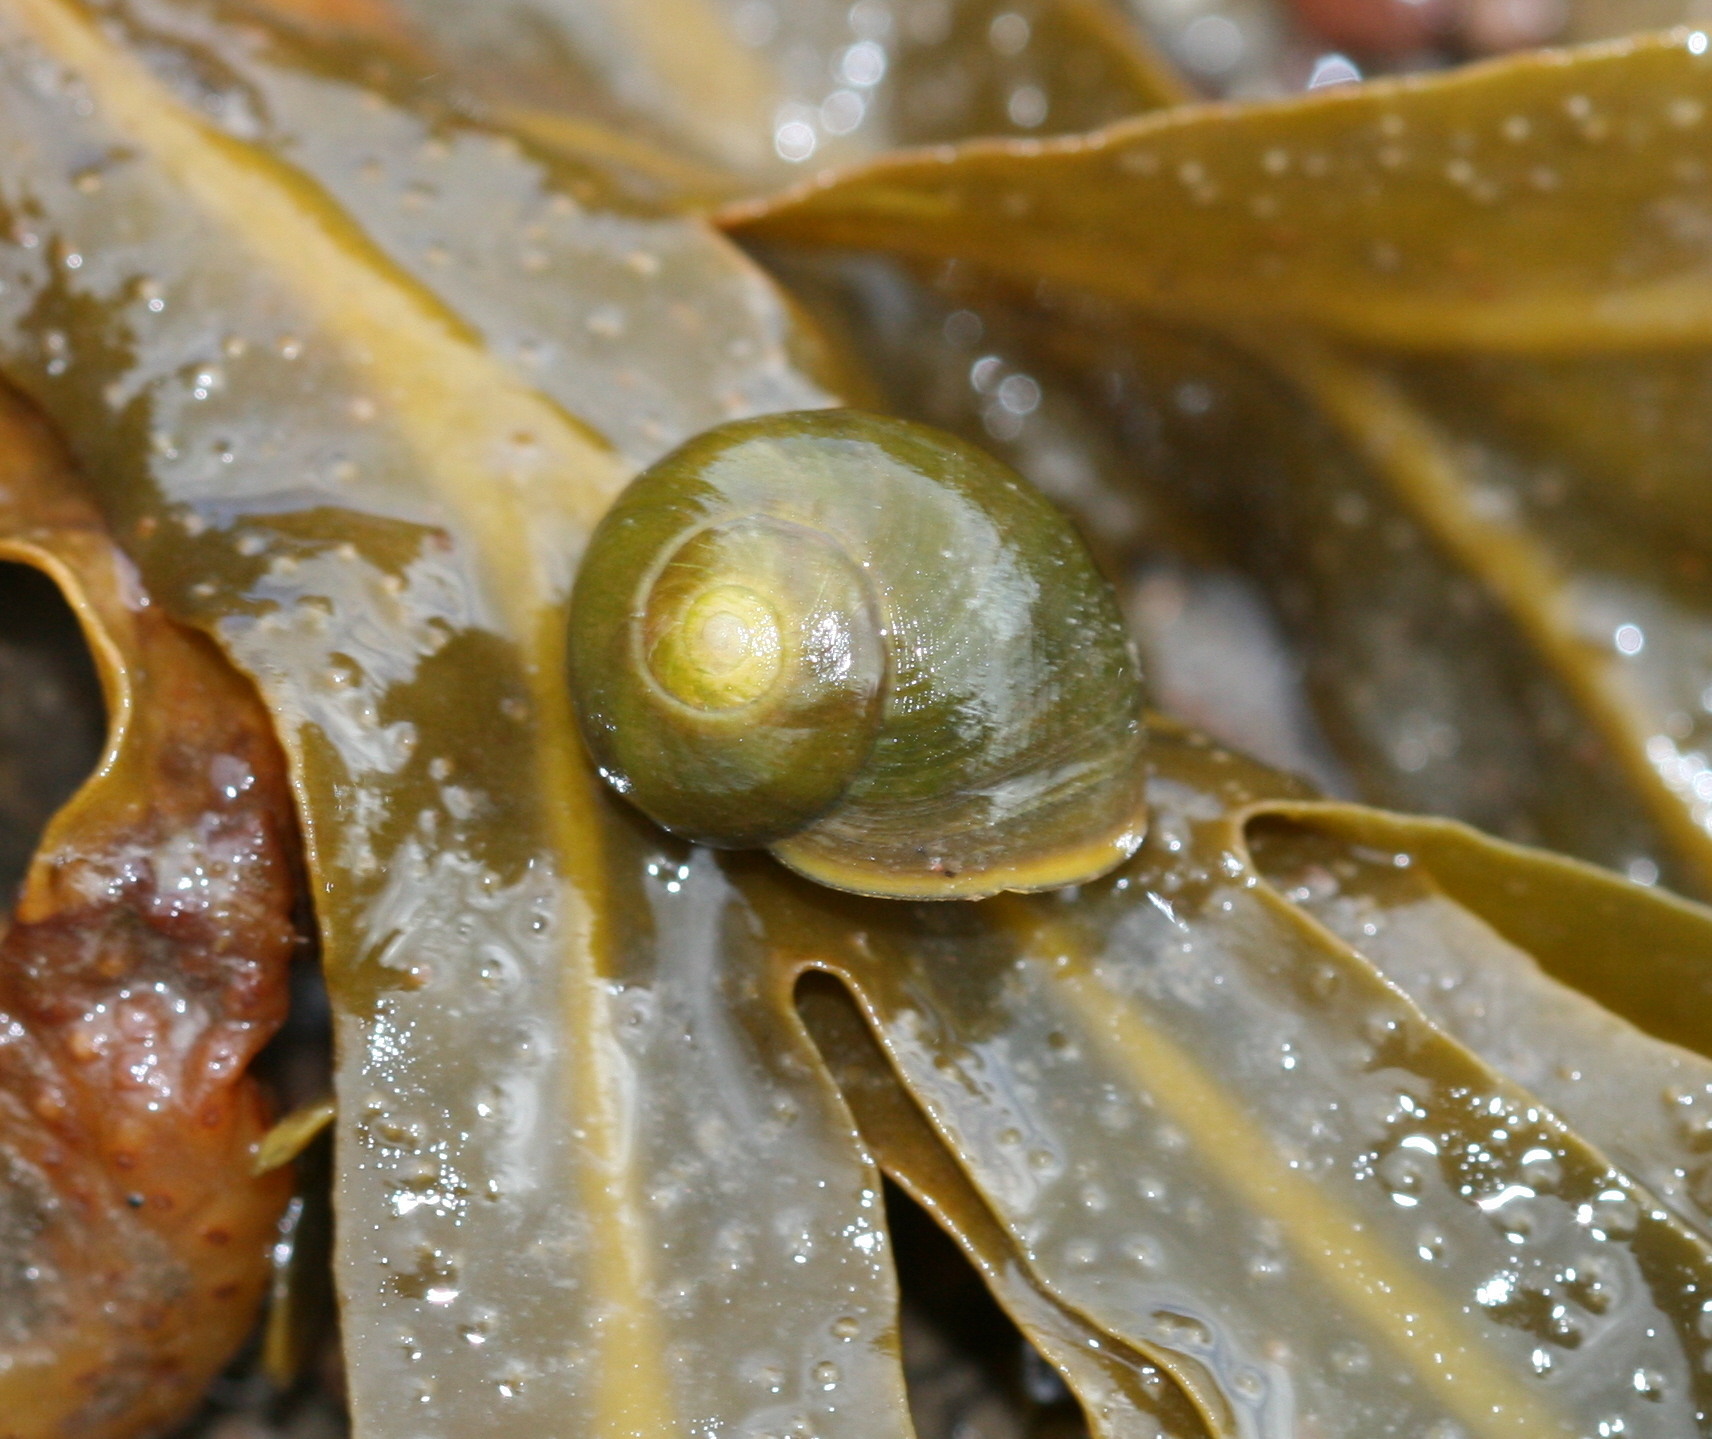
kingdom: Animalia
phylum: Mollusca
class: Gastropoda
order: Littorinimorpha
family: Littorinidae
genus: Littorina
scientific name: Littorina obtusata
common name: Flat periwinkle
